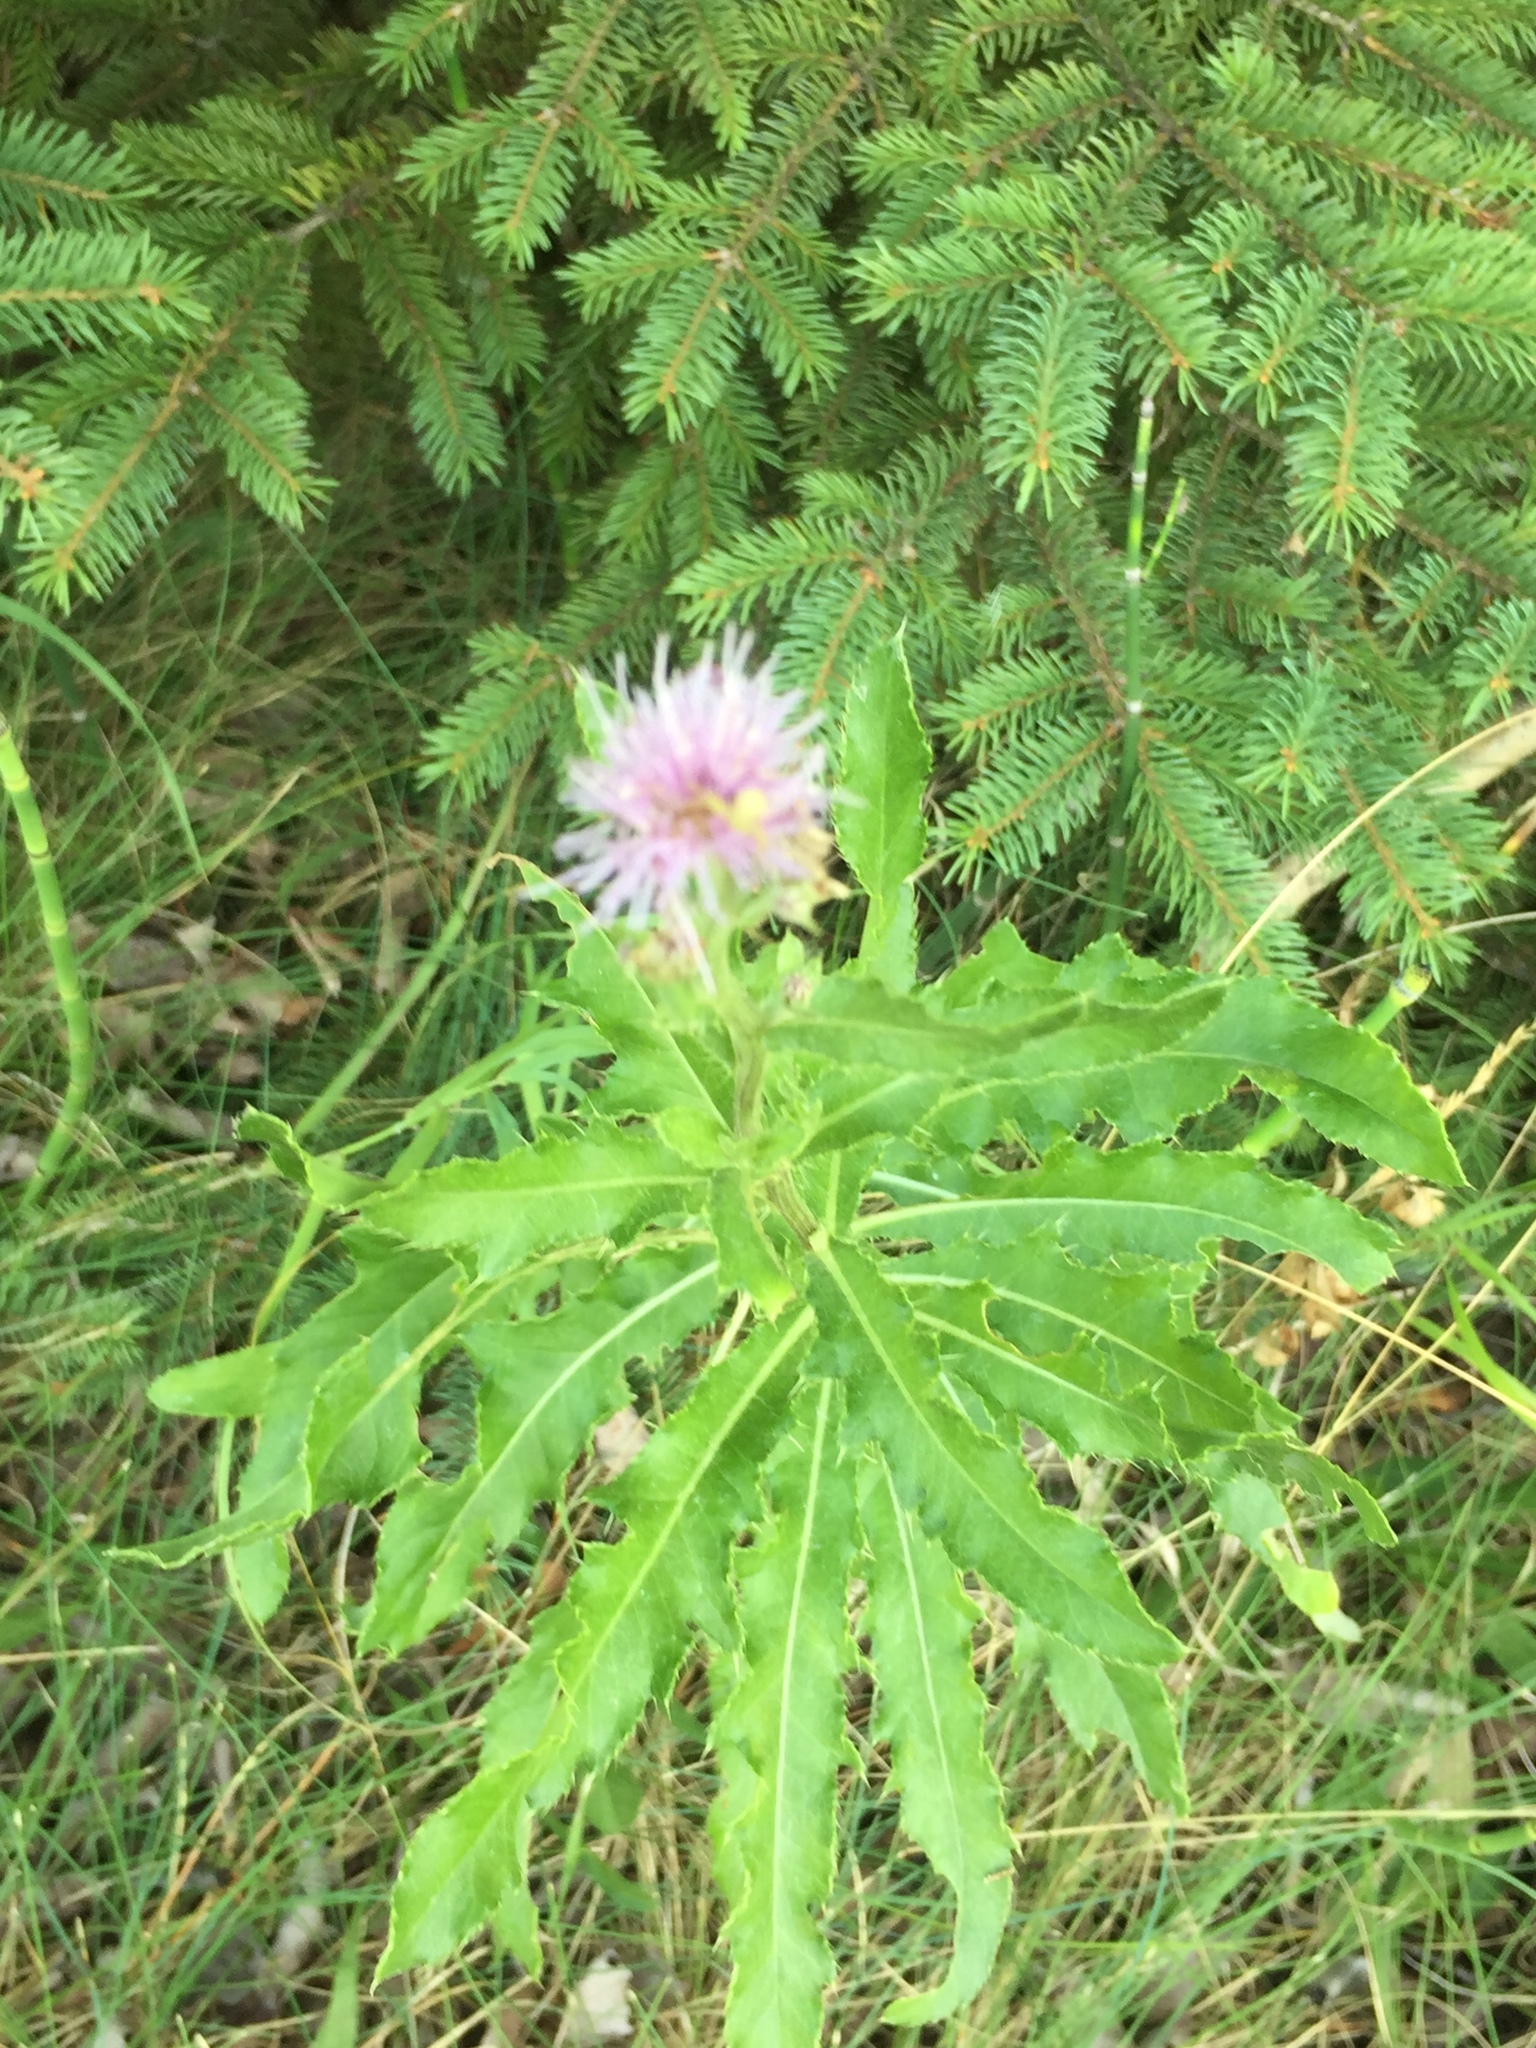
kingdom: Plantae
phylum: Tracheophyta
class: Magnoliopsida
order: Asterales
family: Asteraceae
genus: Cirsium
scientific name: Cirsium arvense
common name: Creeping thistle
